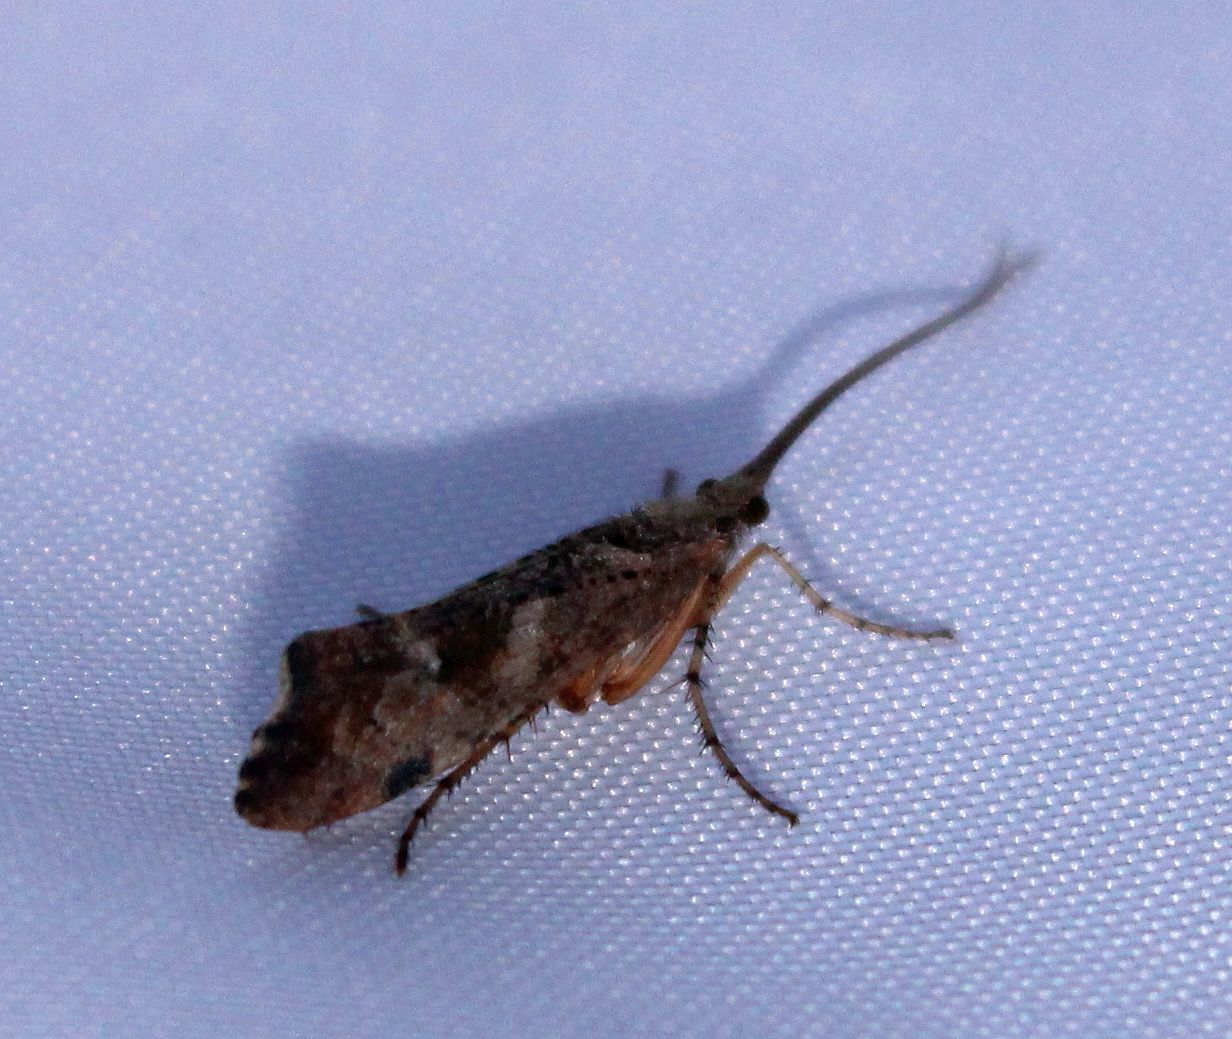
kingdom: Animalia
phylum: Arthropoda
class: Insecta
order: Trichoptera
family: Limnephilidae
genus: Glyphotaelius
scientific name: Glyphotaelius pellucidus
